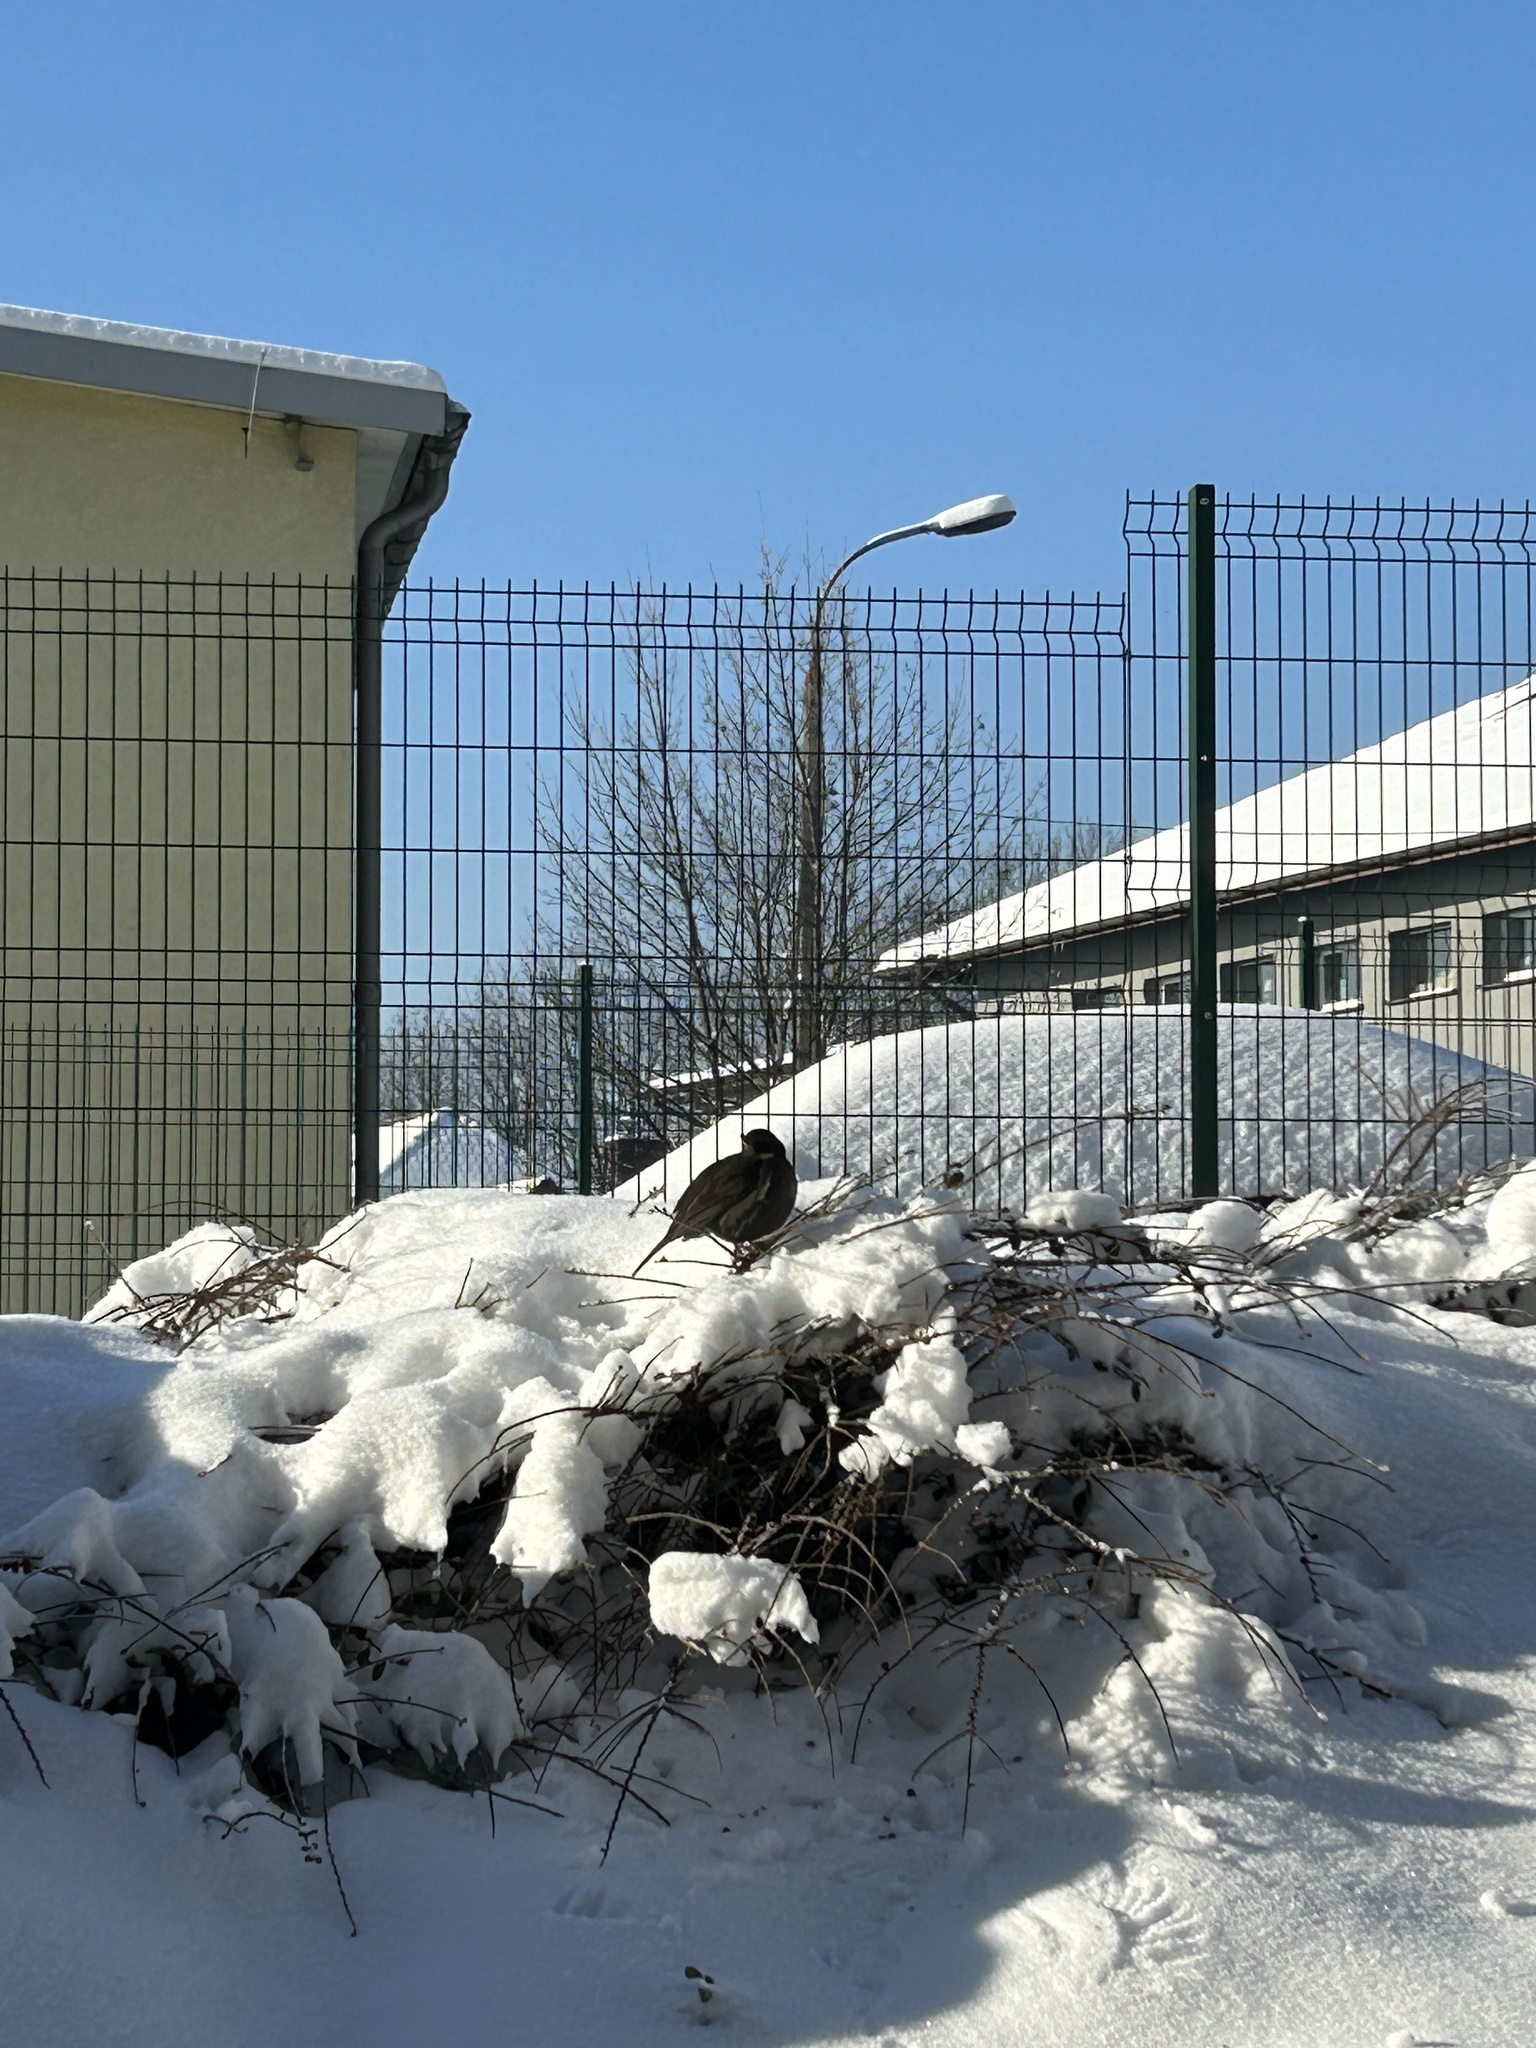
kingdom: Animalia
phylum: Chordata
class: Aves
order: Passeriformes
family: Turdidae
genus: Turdus
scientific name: Turdus merula
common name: Common blackbird
